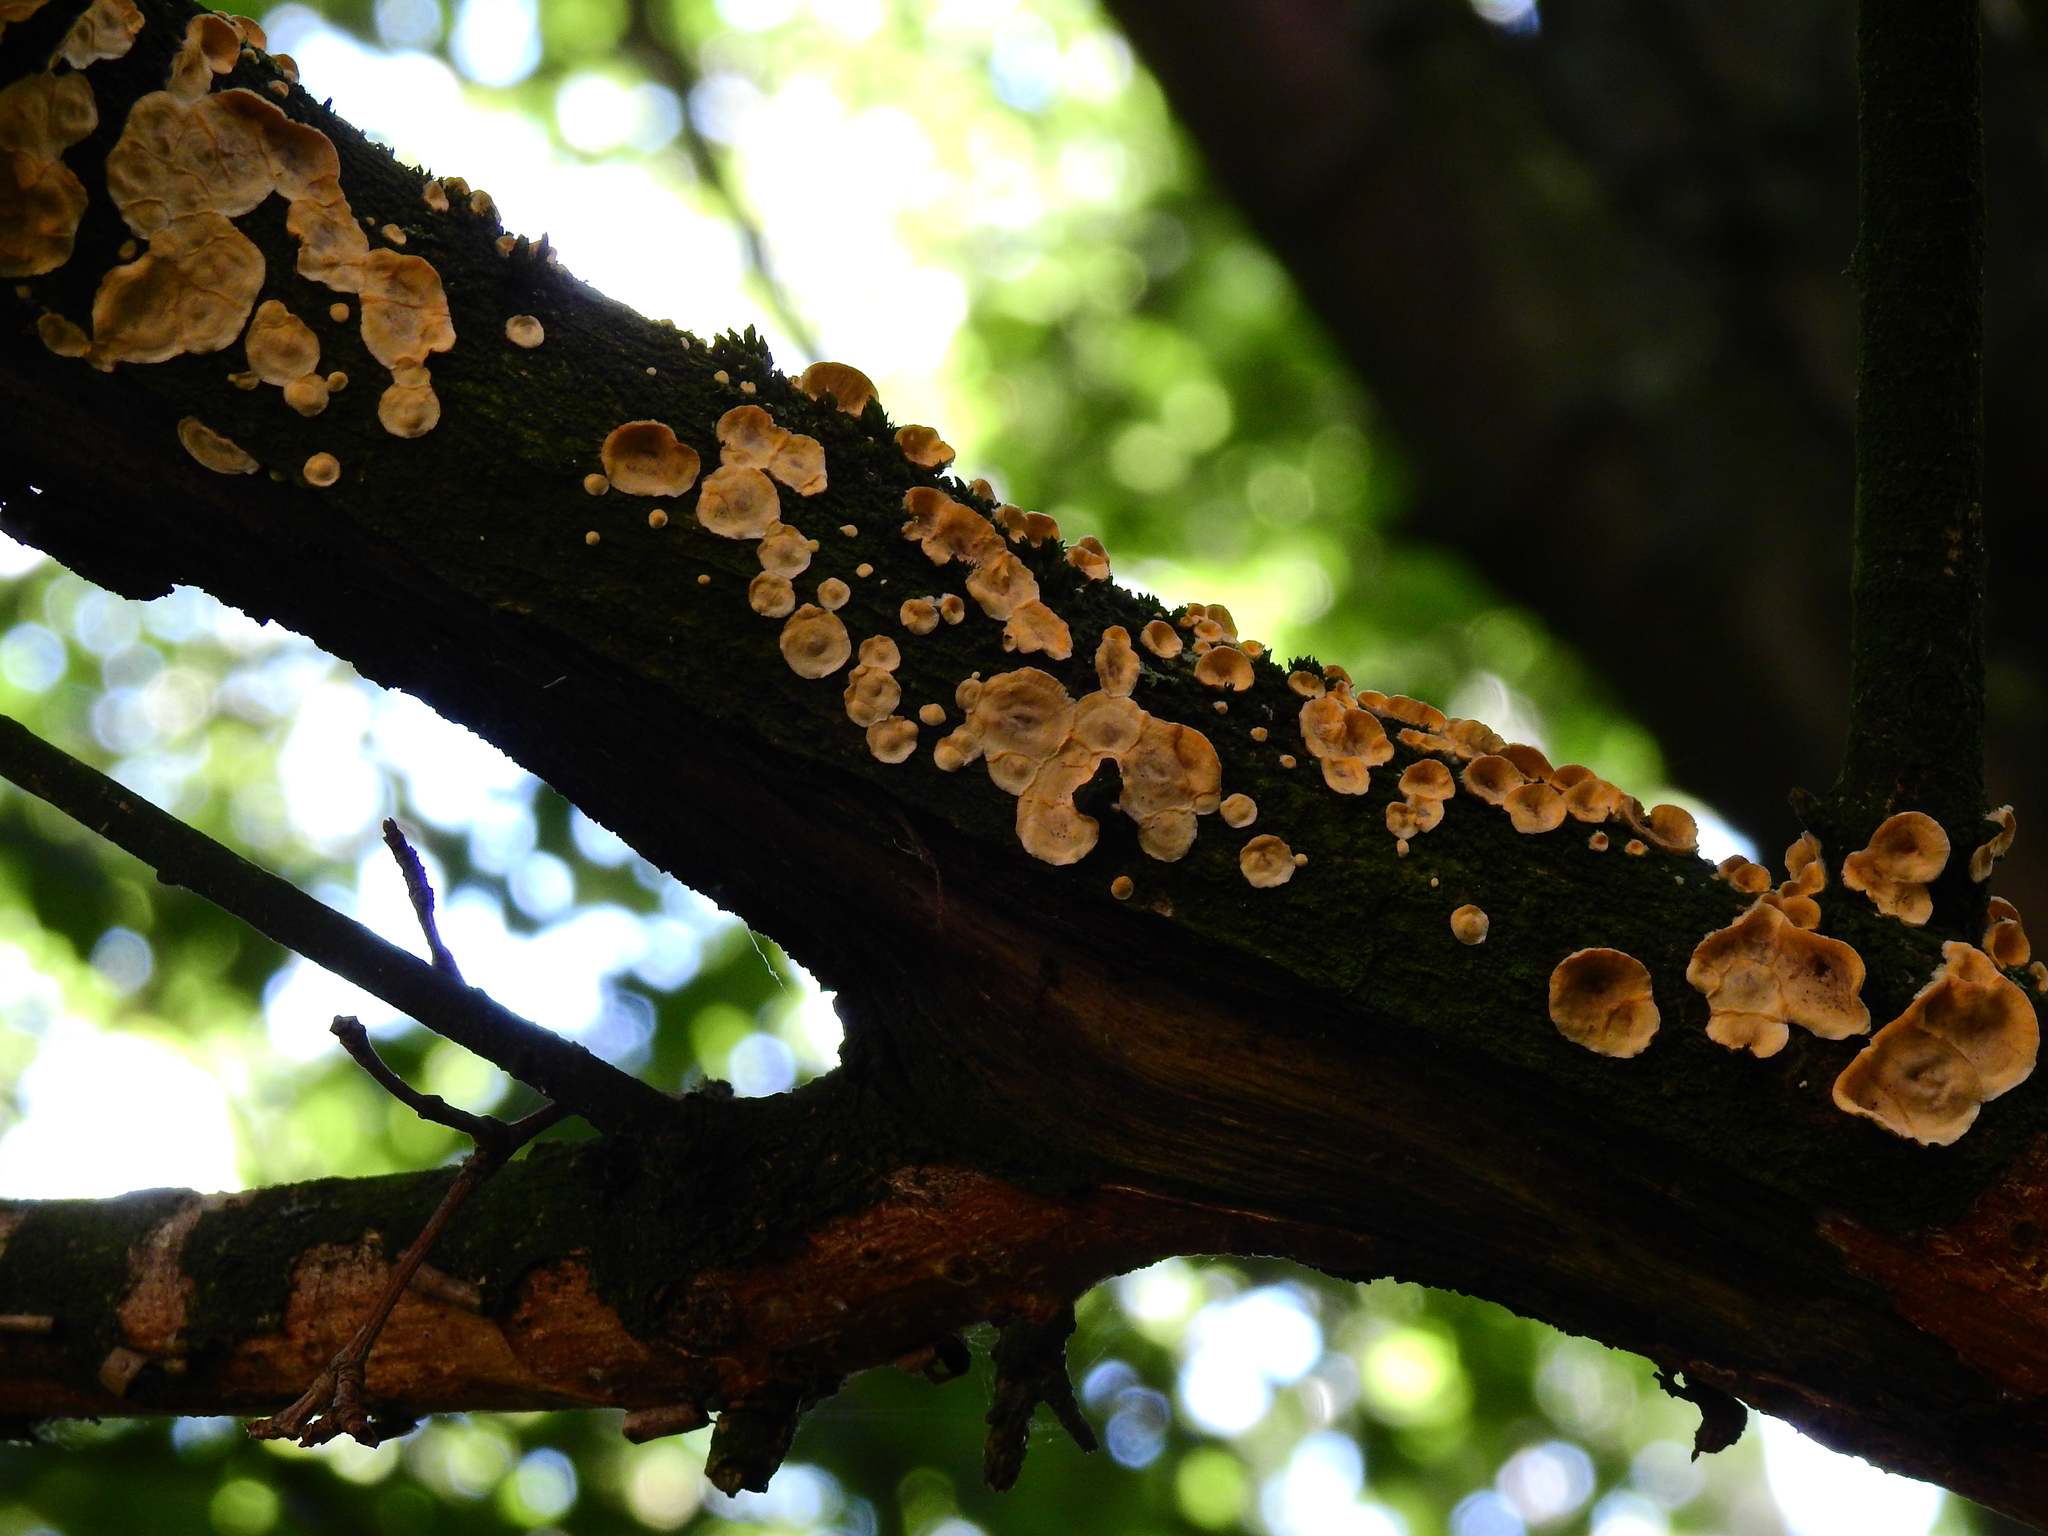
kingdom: Fungi
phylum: Basidiomycota
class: Agaricomycetes
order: Russulales
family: Stereaceae
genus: Stereum
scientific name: Stereum hirsutum
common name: Hairy curtain crust
